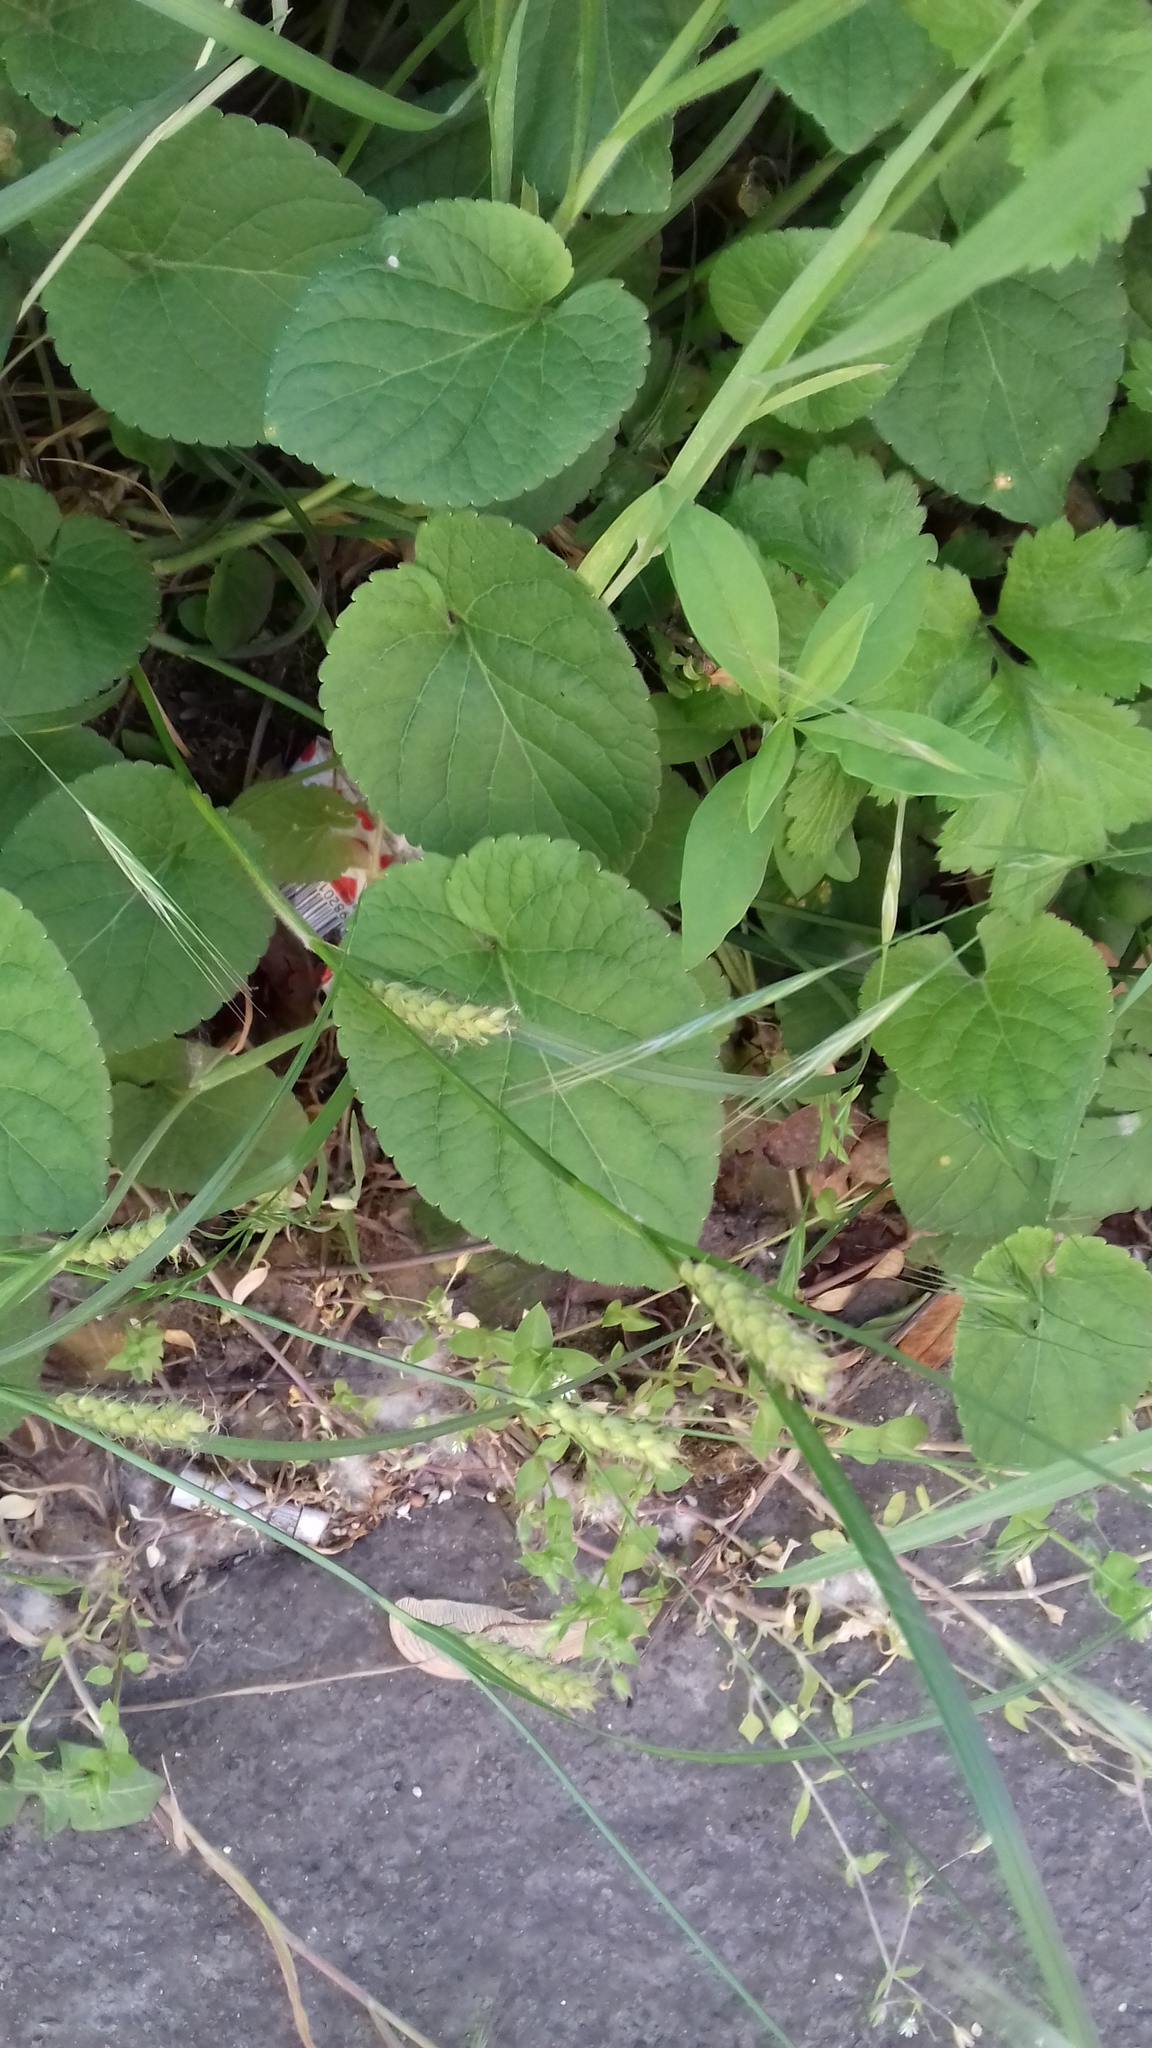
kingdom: Plantae
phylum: Tracheophyta
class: Liliopsida
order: Poales
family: Cyperaceae
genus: Carex
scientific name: Carex hirta
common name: Hairy sedge
